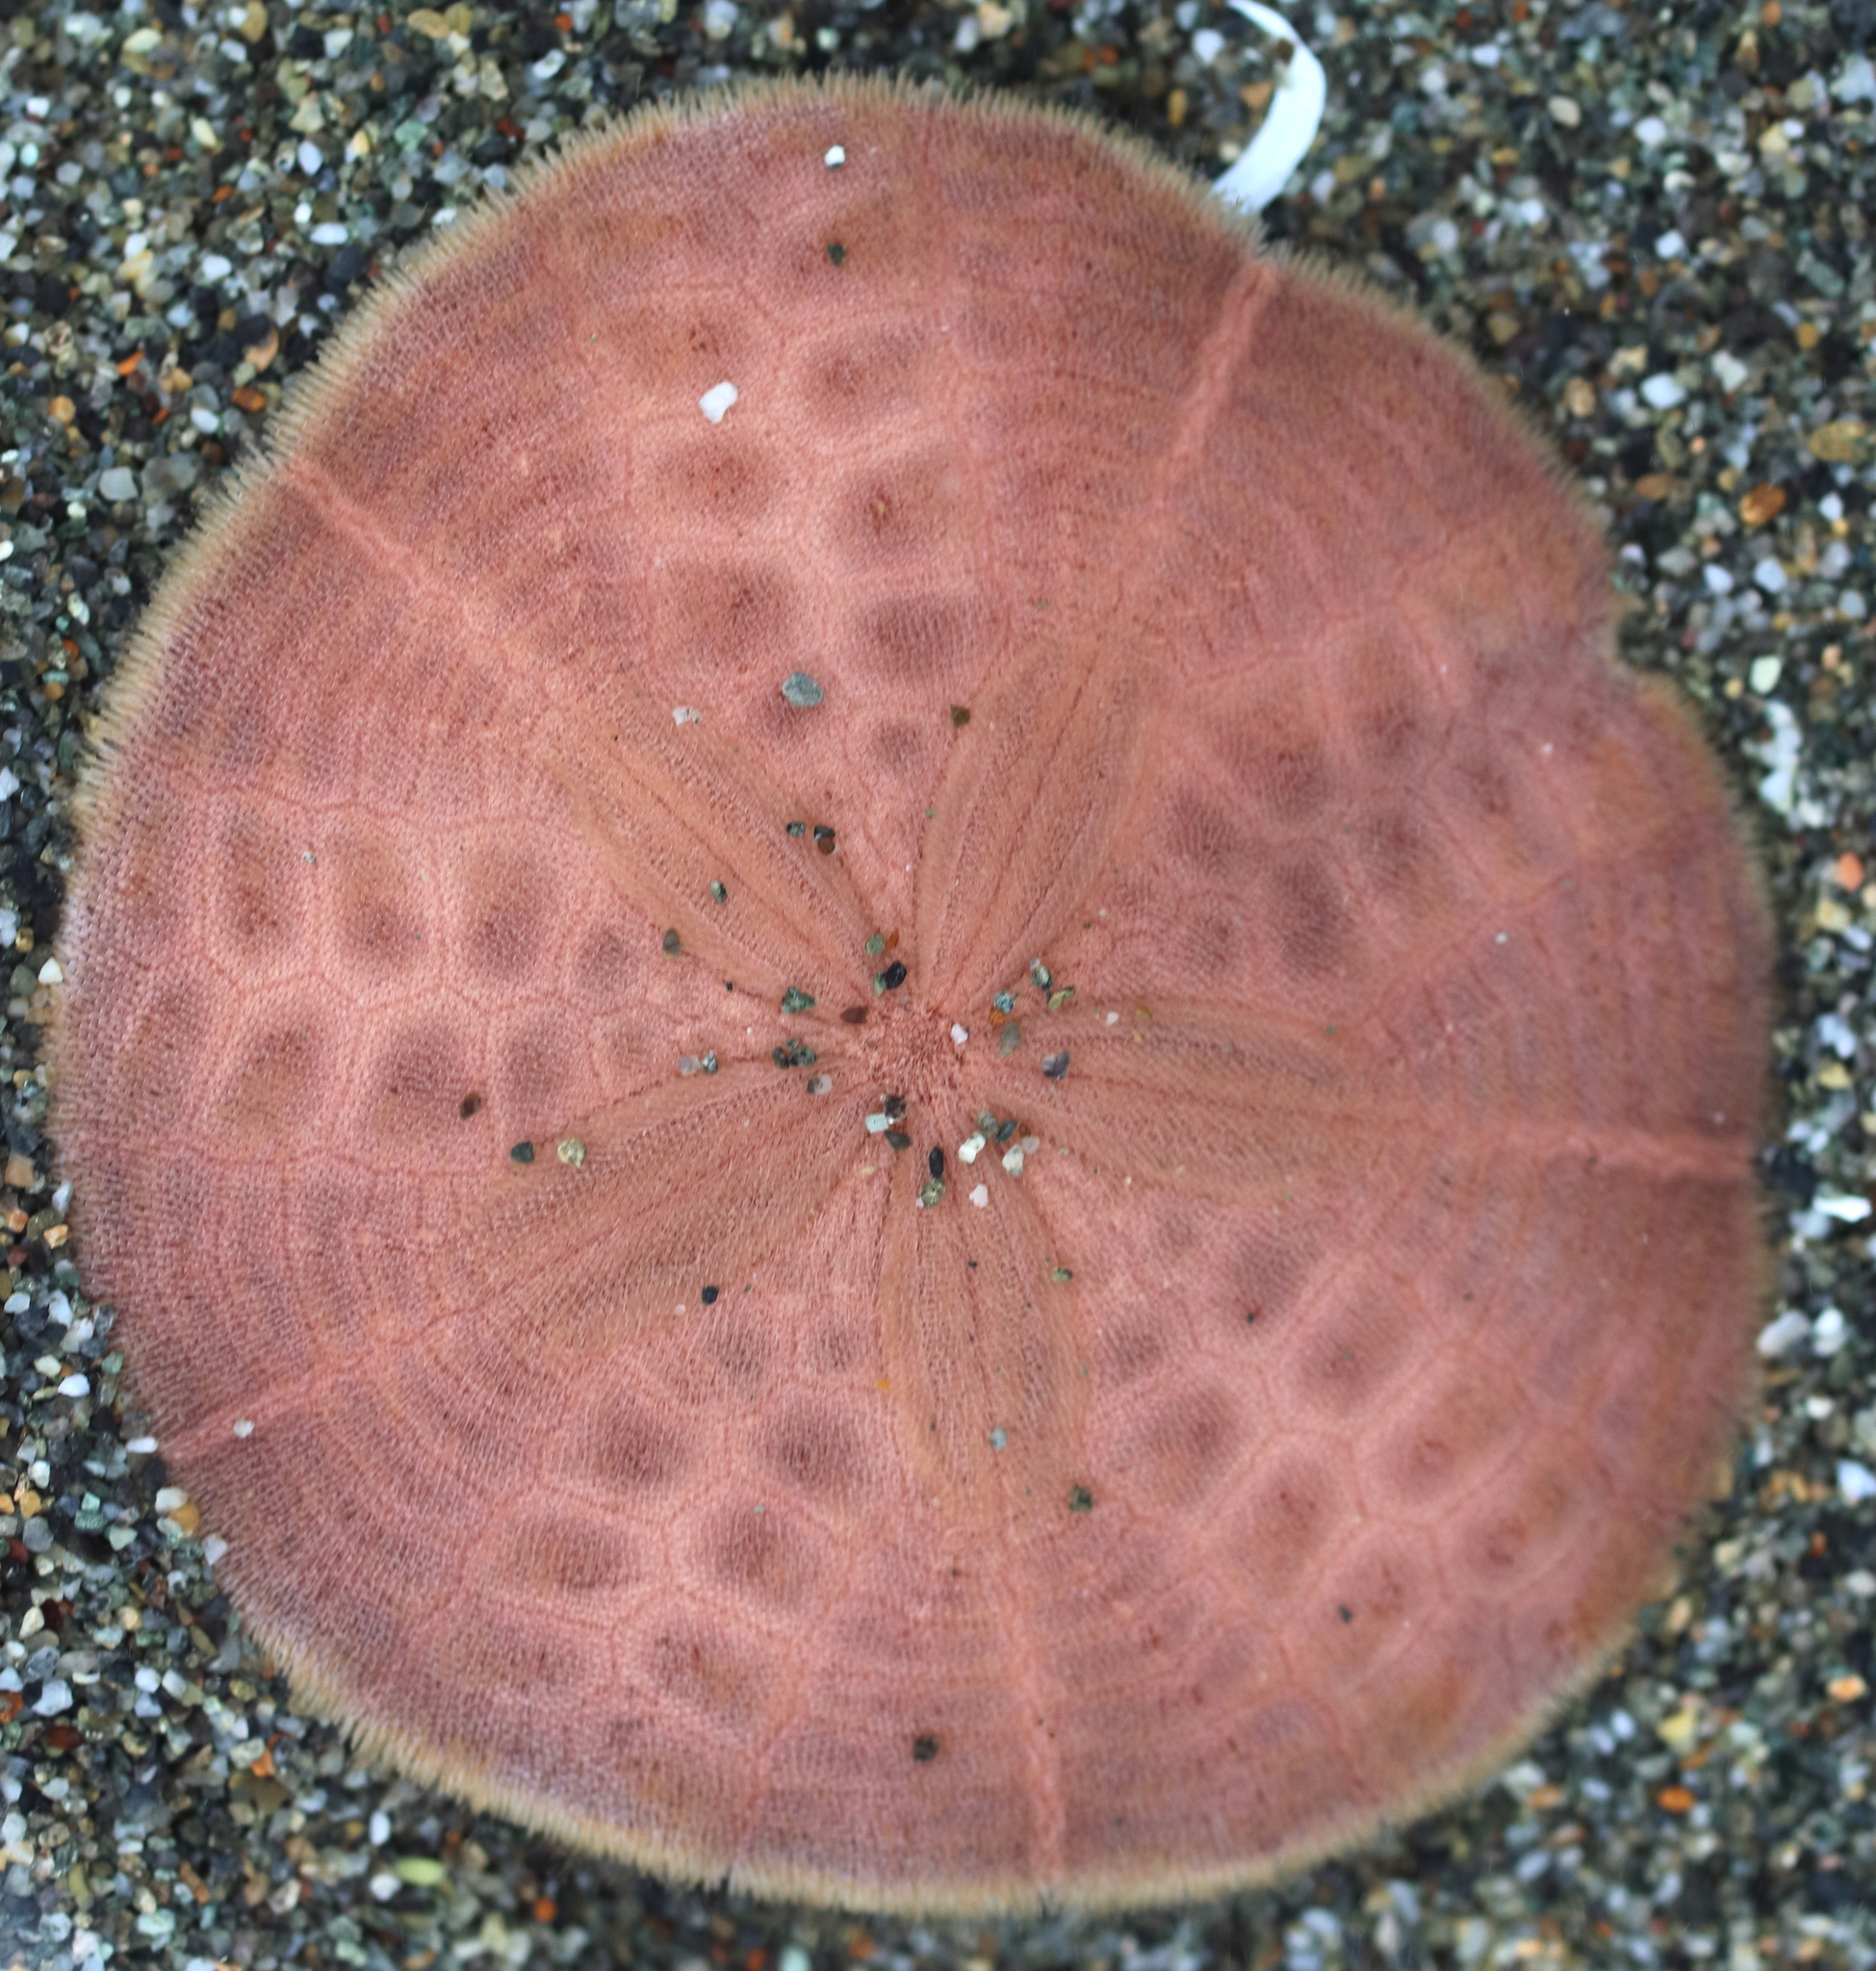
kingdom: Animalia
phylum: Echinodermata
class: Echinoidea
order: Echinolampadacea
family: Echinarachniidae
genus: Echinarachnius
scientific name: Echinarachnius parma
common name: Common sand dollar
